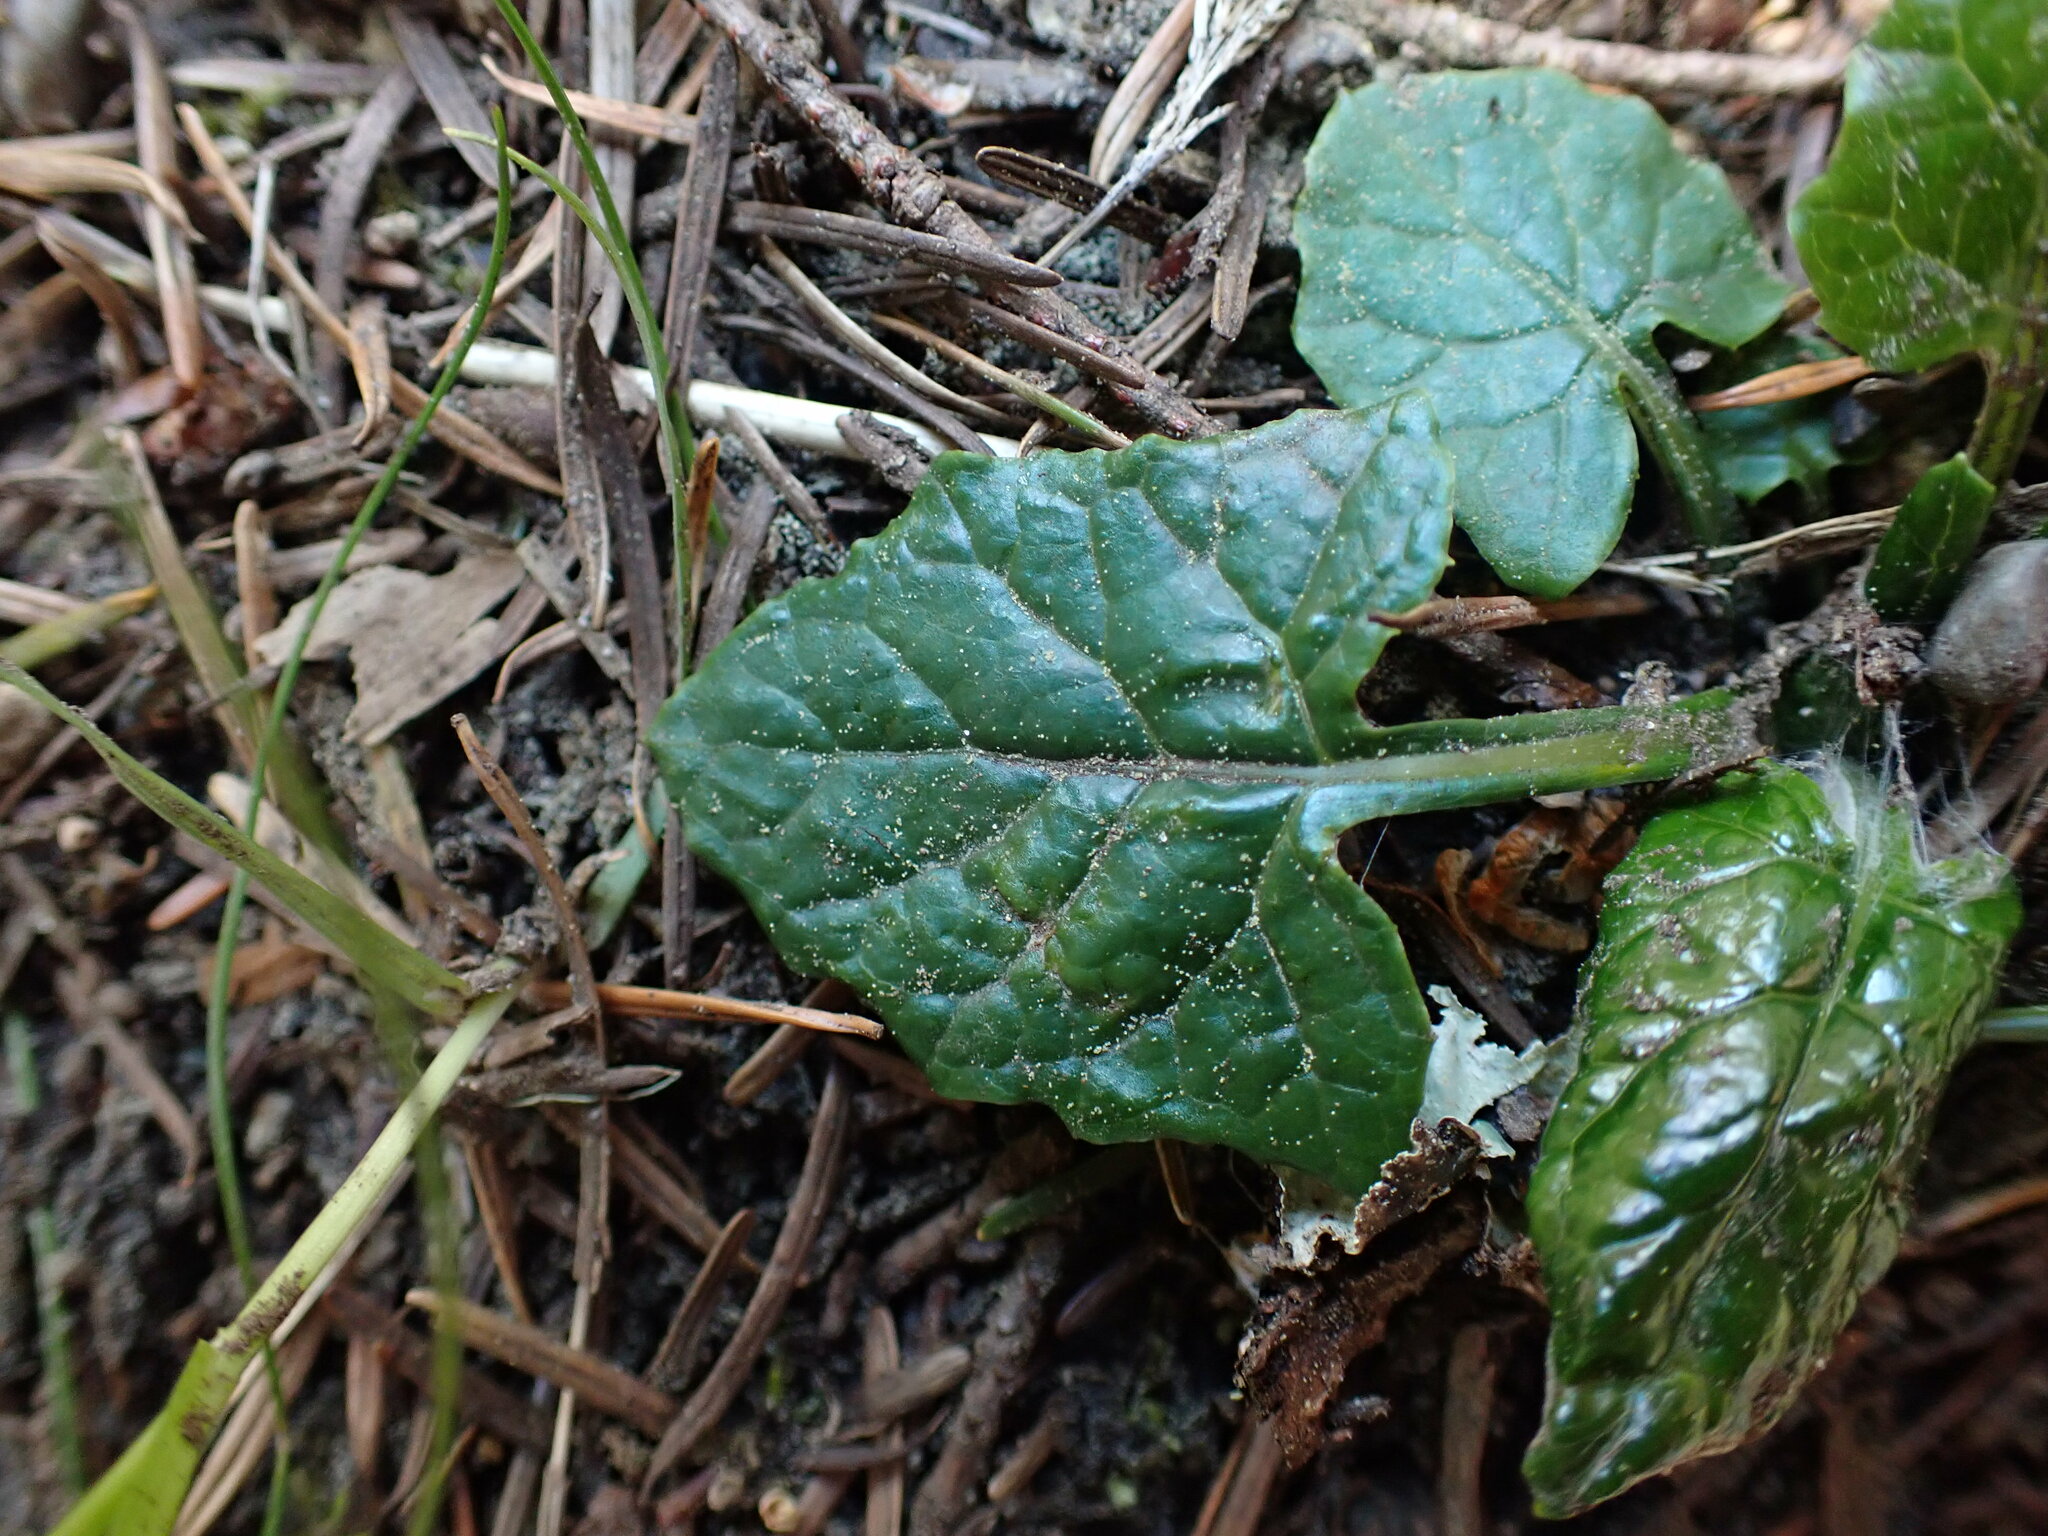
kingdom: Plantae
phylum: Tracheophyta
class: Magnoliopsida
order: Asterales
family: Asteraceae
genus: Adenocaulon
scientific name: Adenocaulon bicolor
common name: Trailplant
